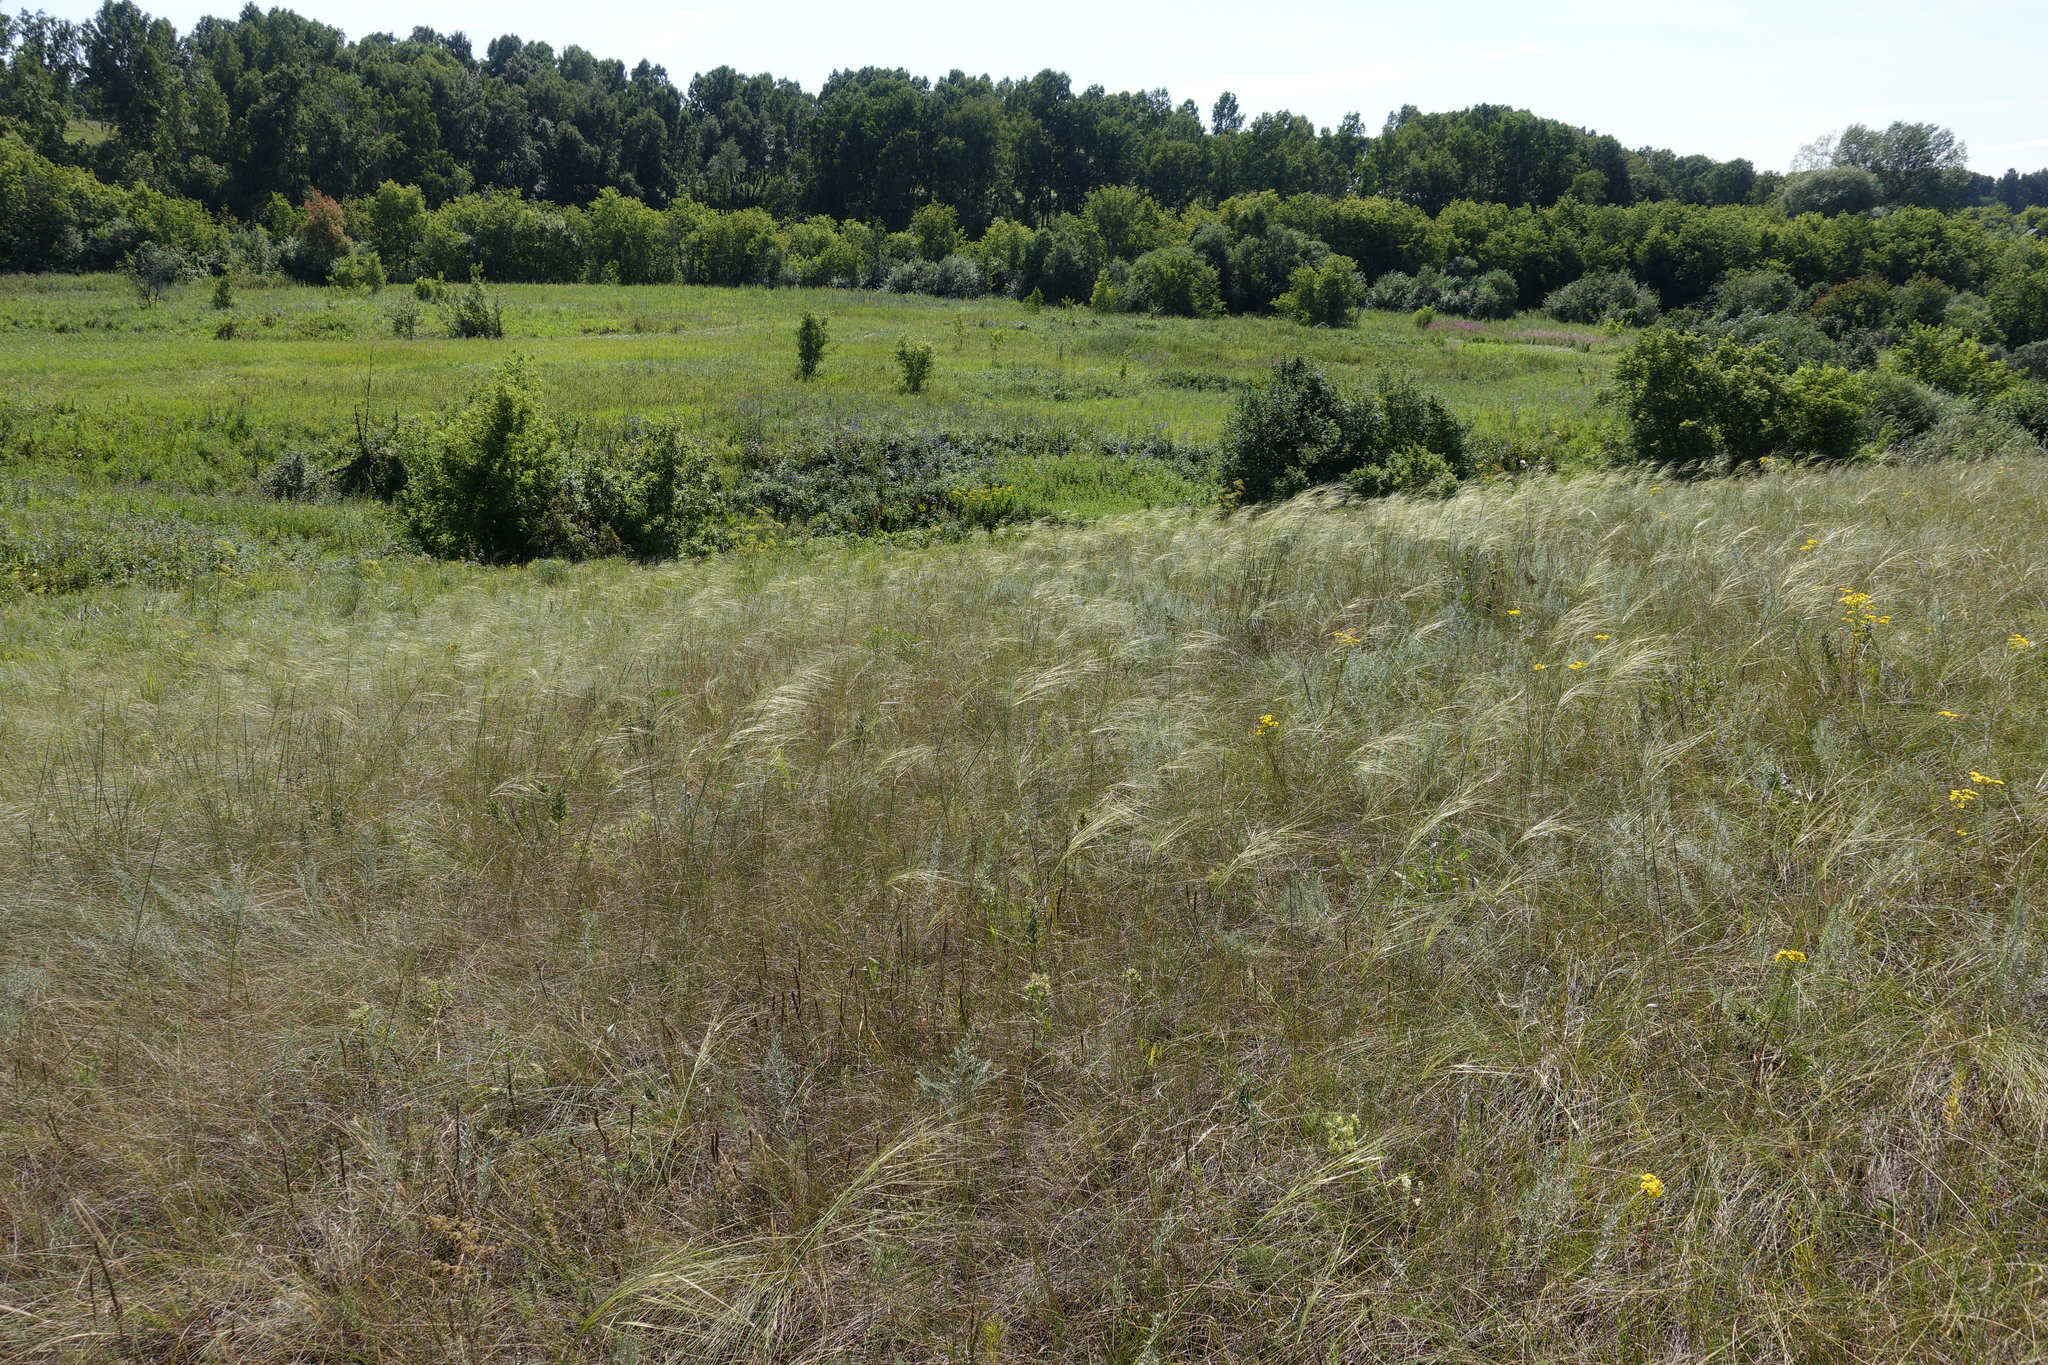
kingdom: Plantae
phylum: Tracheophyta
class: Liliopsida
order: Poales
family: Poaceae
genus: Stipa
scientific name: Stipa capillata
